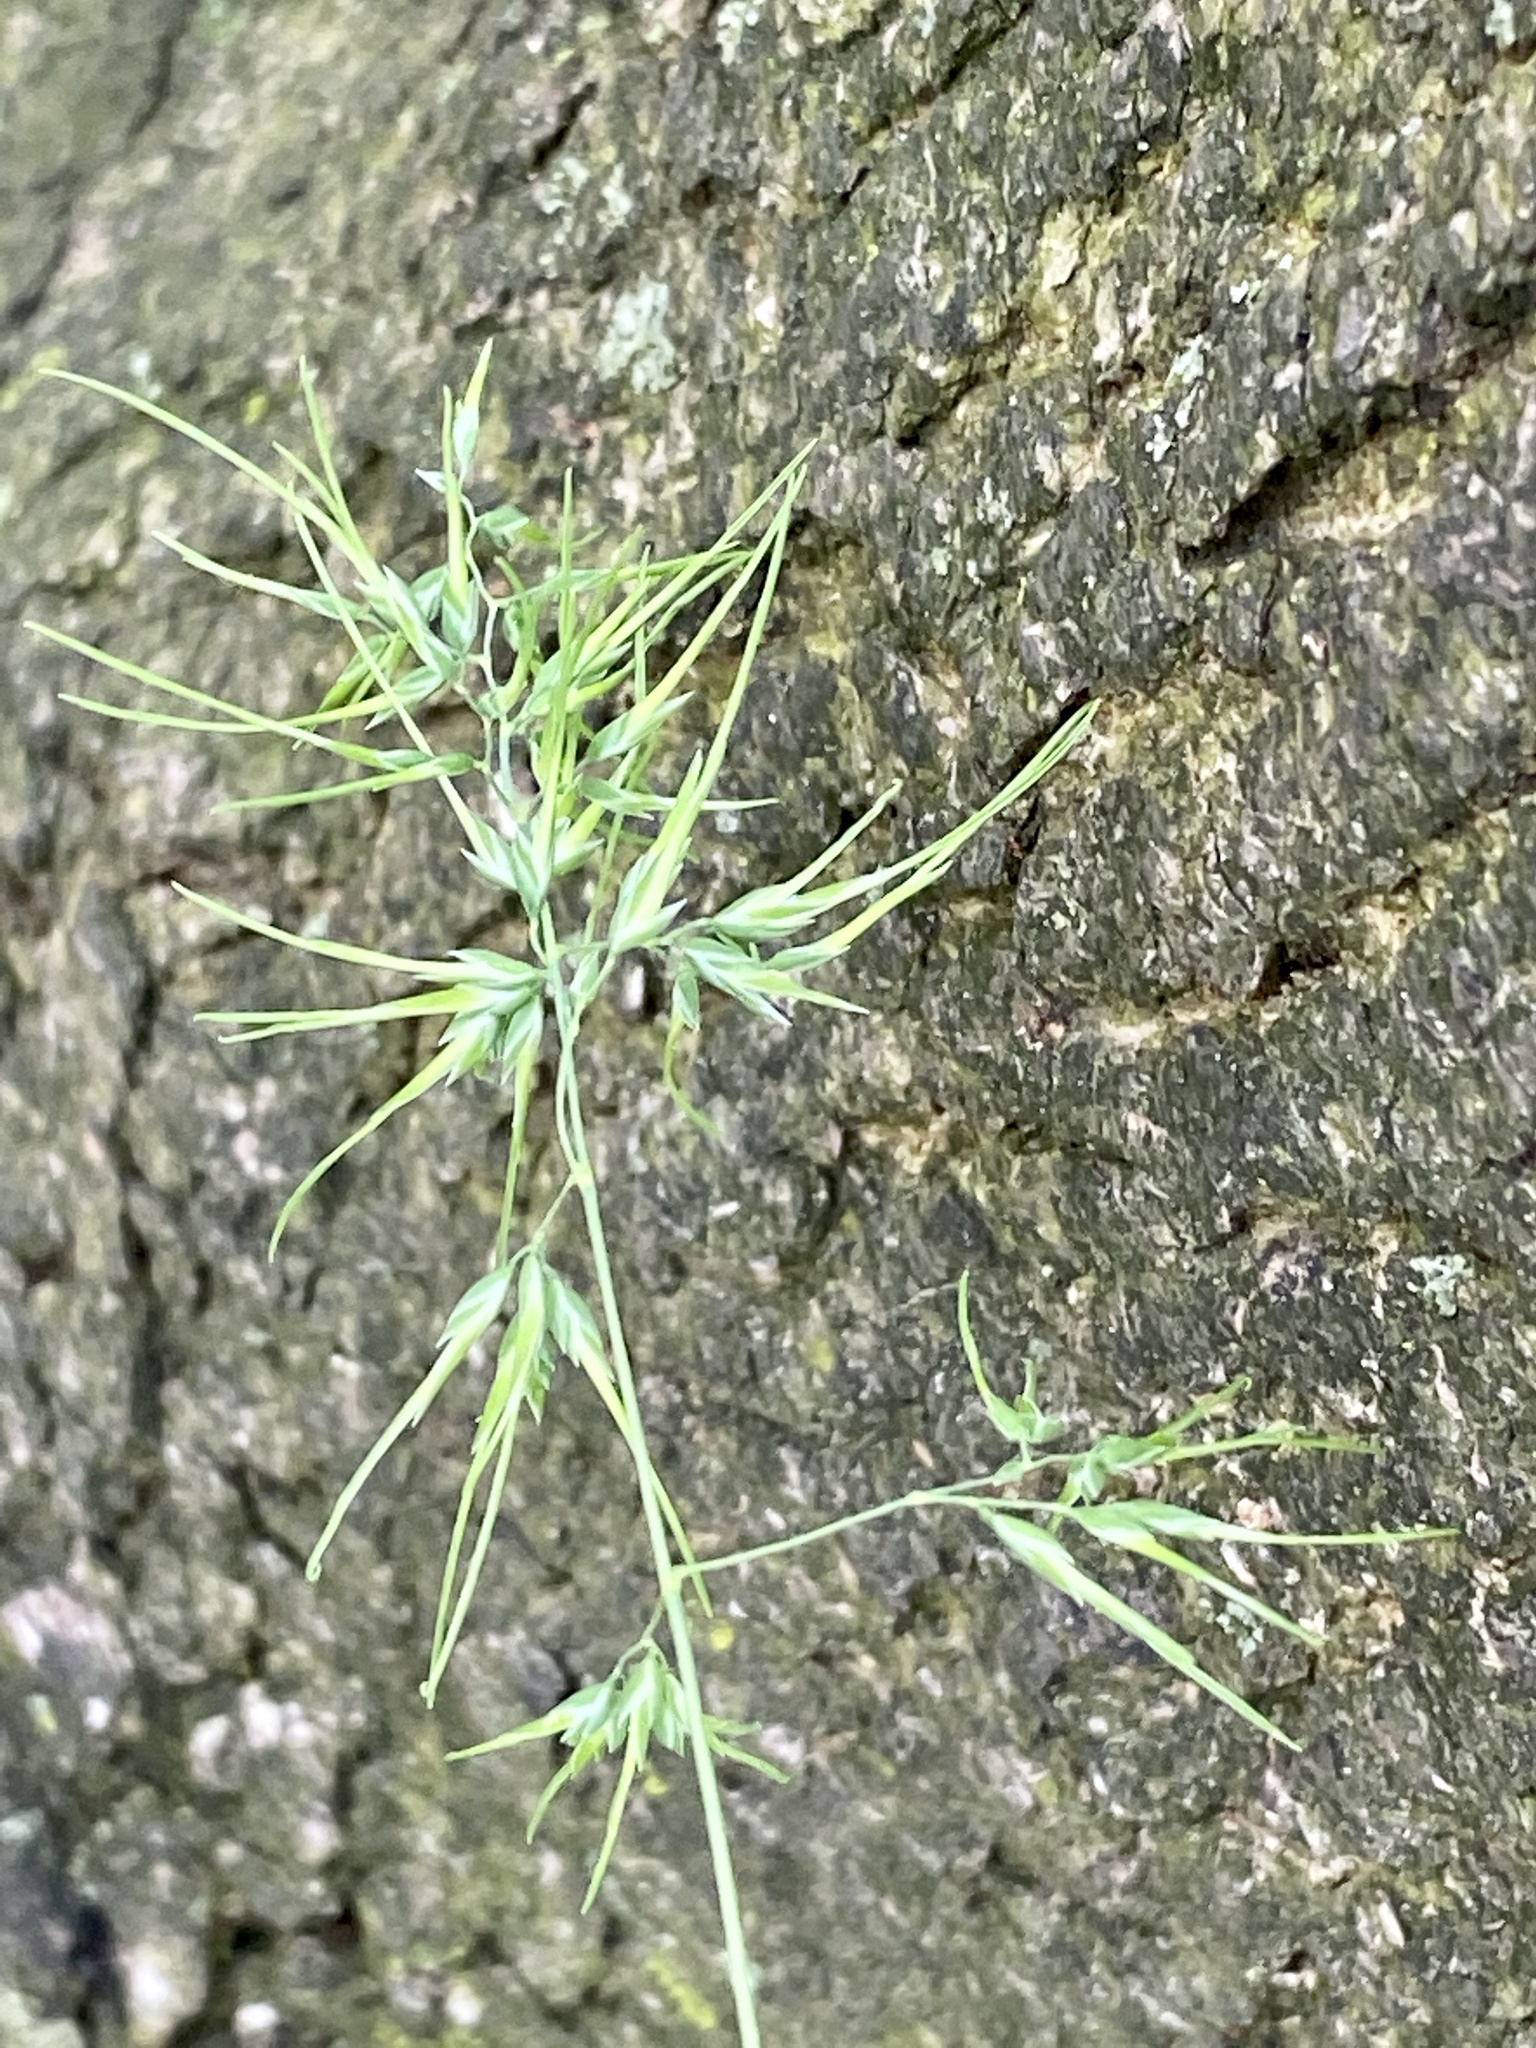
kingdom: Plantae
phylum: Tracheophyta
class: Liliopsida
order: Poales
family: Poaceae
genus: Poa
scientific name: Poa bulbosa
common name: Bulbous bluegrass
